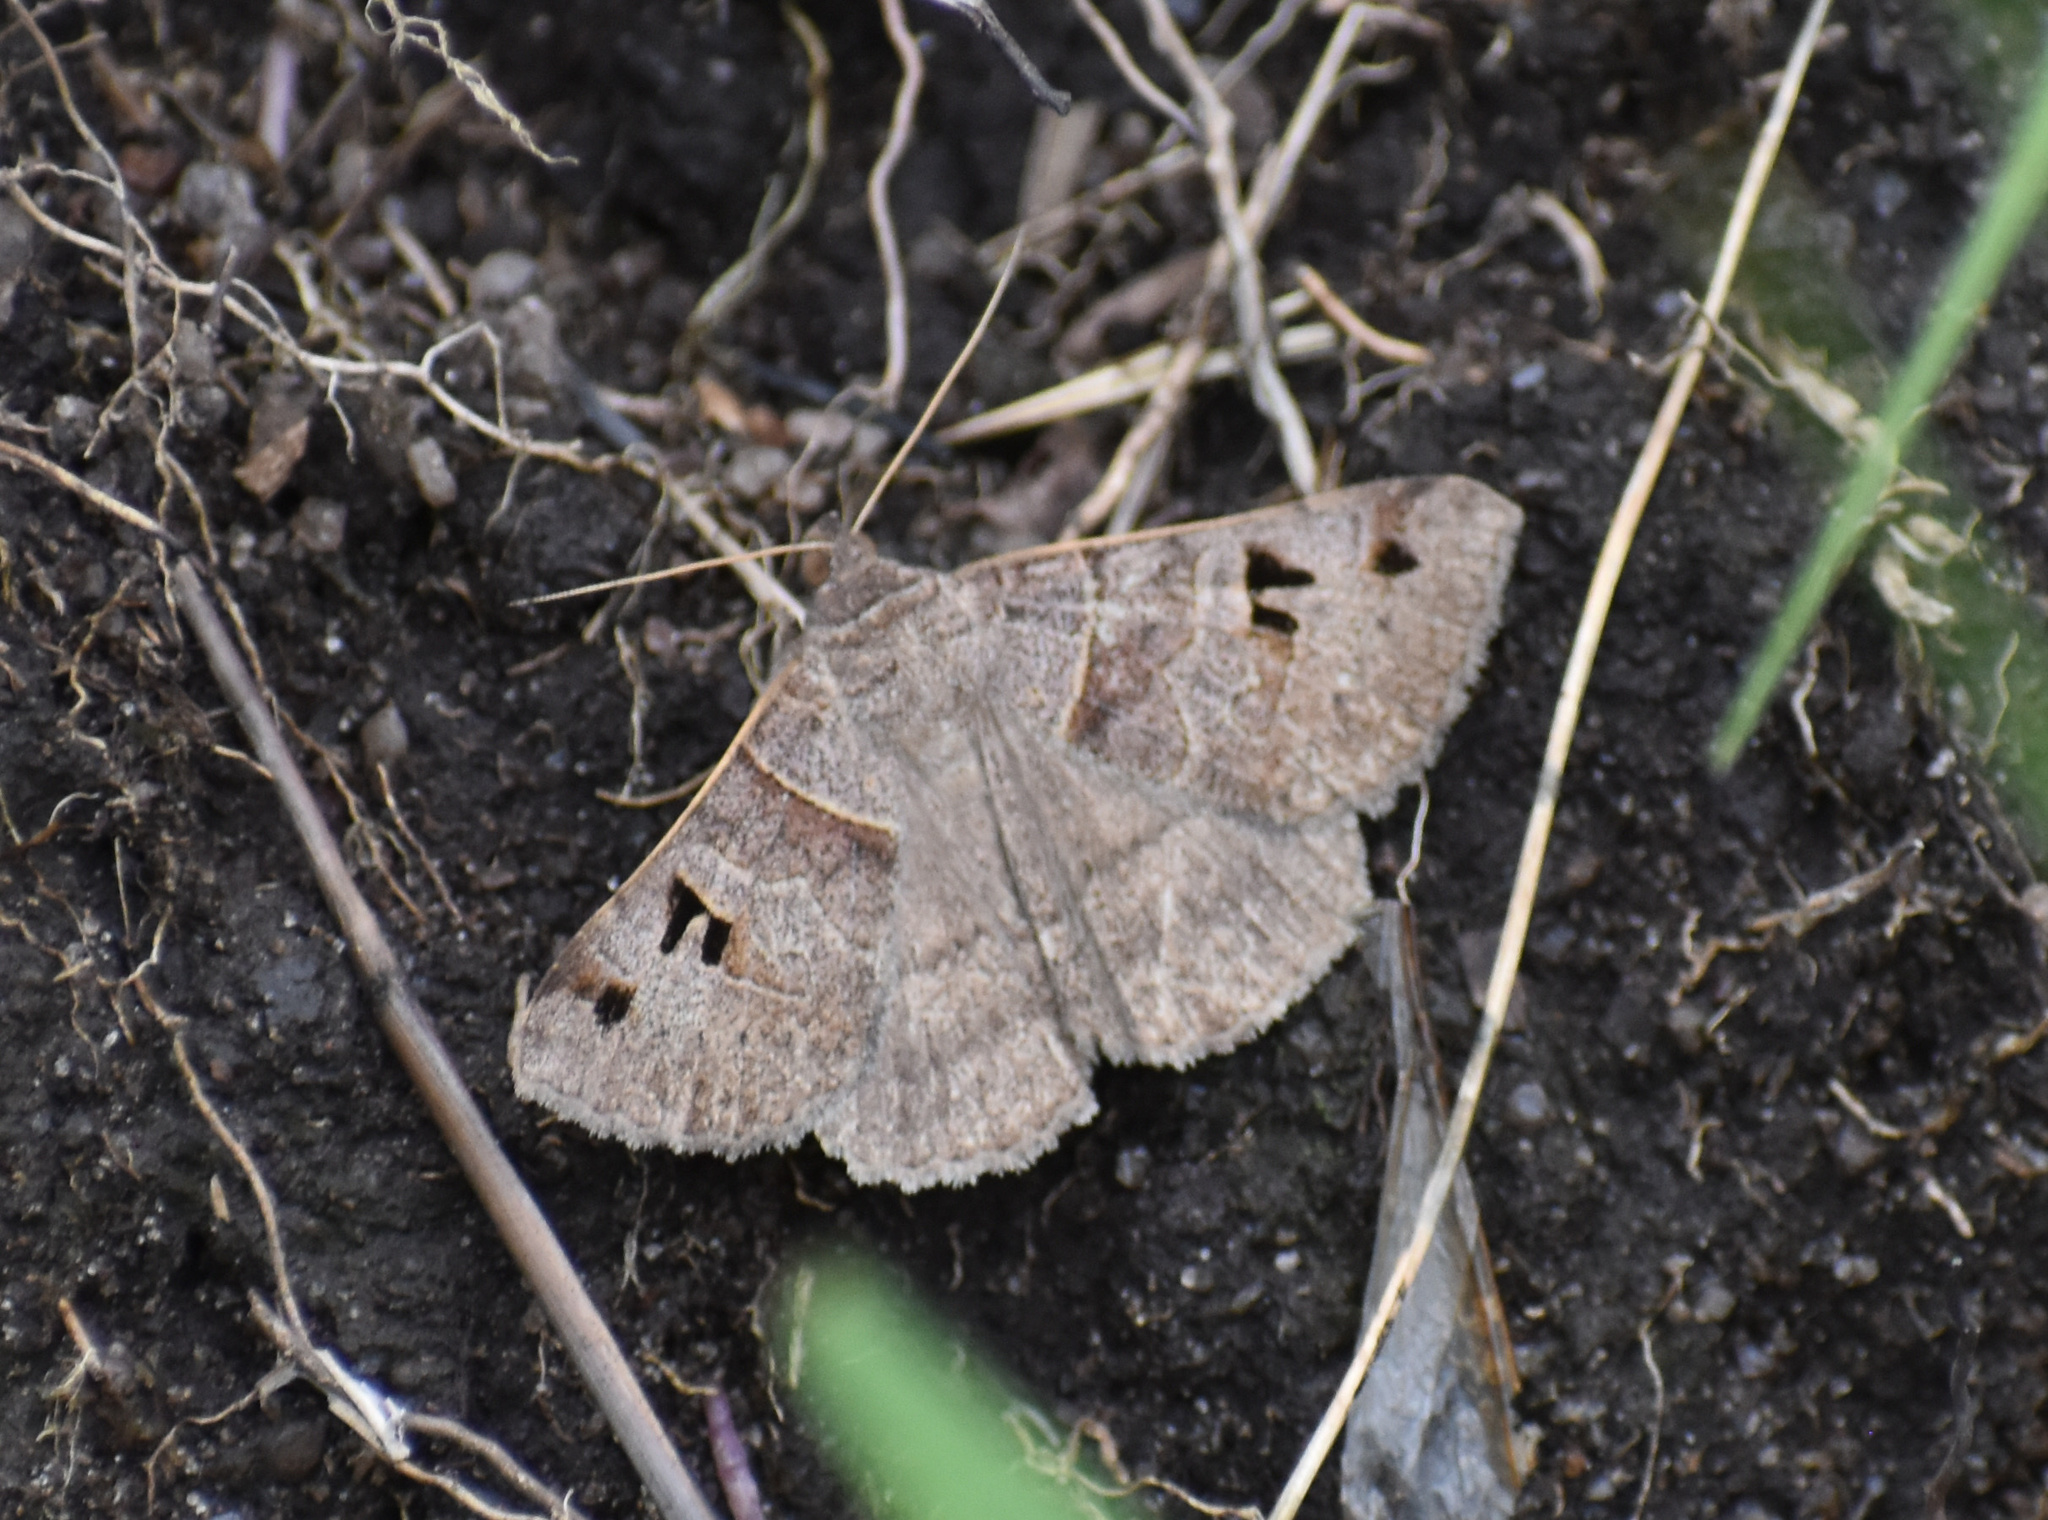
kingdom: Animalia
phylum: Arthropoda
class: Insecta
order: Lepidoptera
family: Erebidae
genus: Mocis
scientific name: Mocis mutuaria
